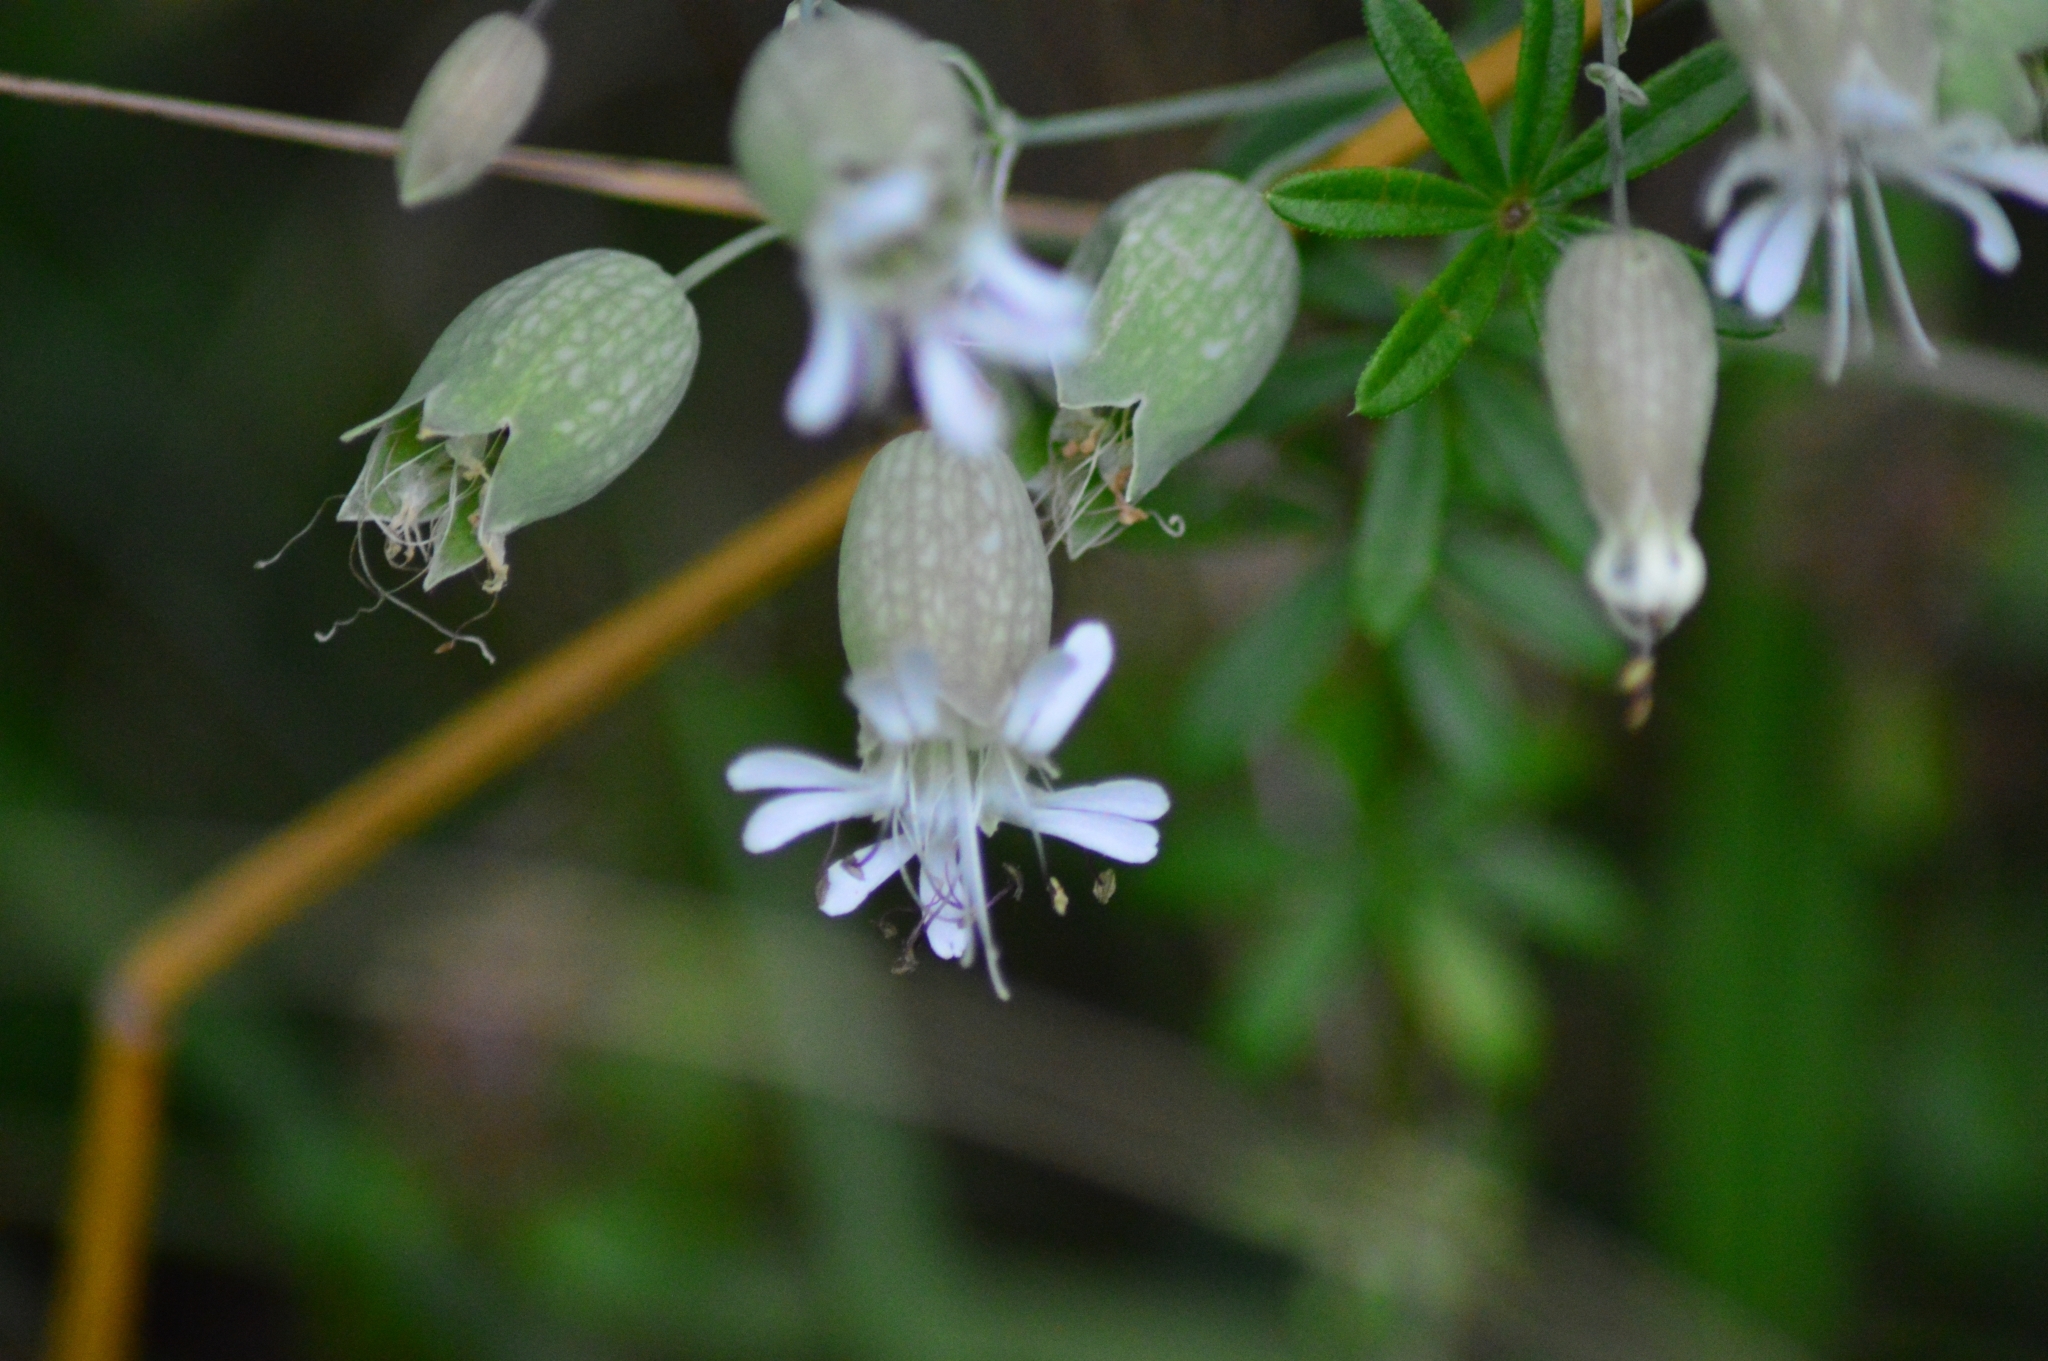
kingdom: Plantae
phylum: Tracheophyta
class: Magnoliopsida
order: Caryophyllales
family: Caryophyllaceae
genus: Silene
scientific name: Silene vulgaris
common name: Bladder campion
